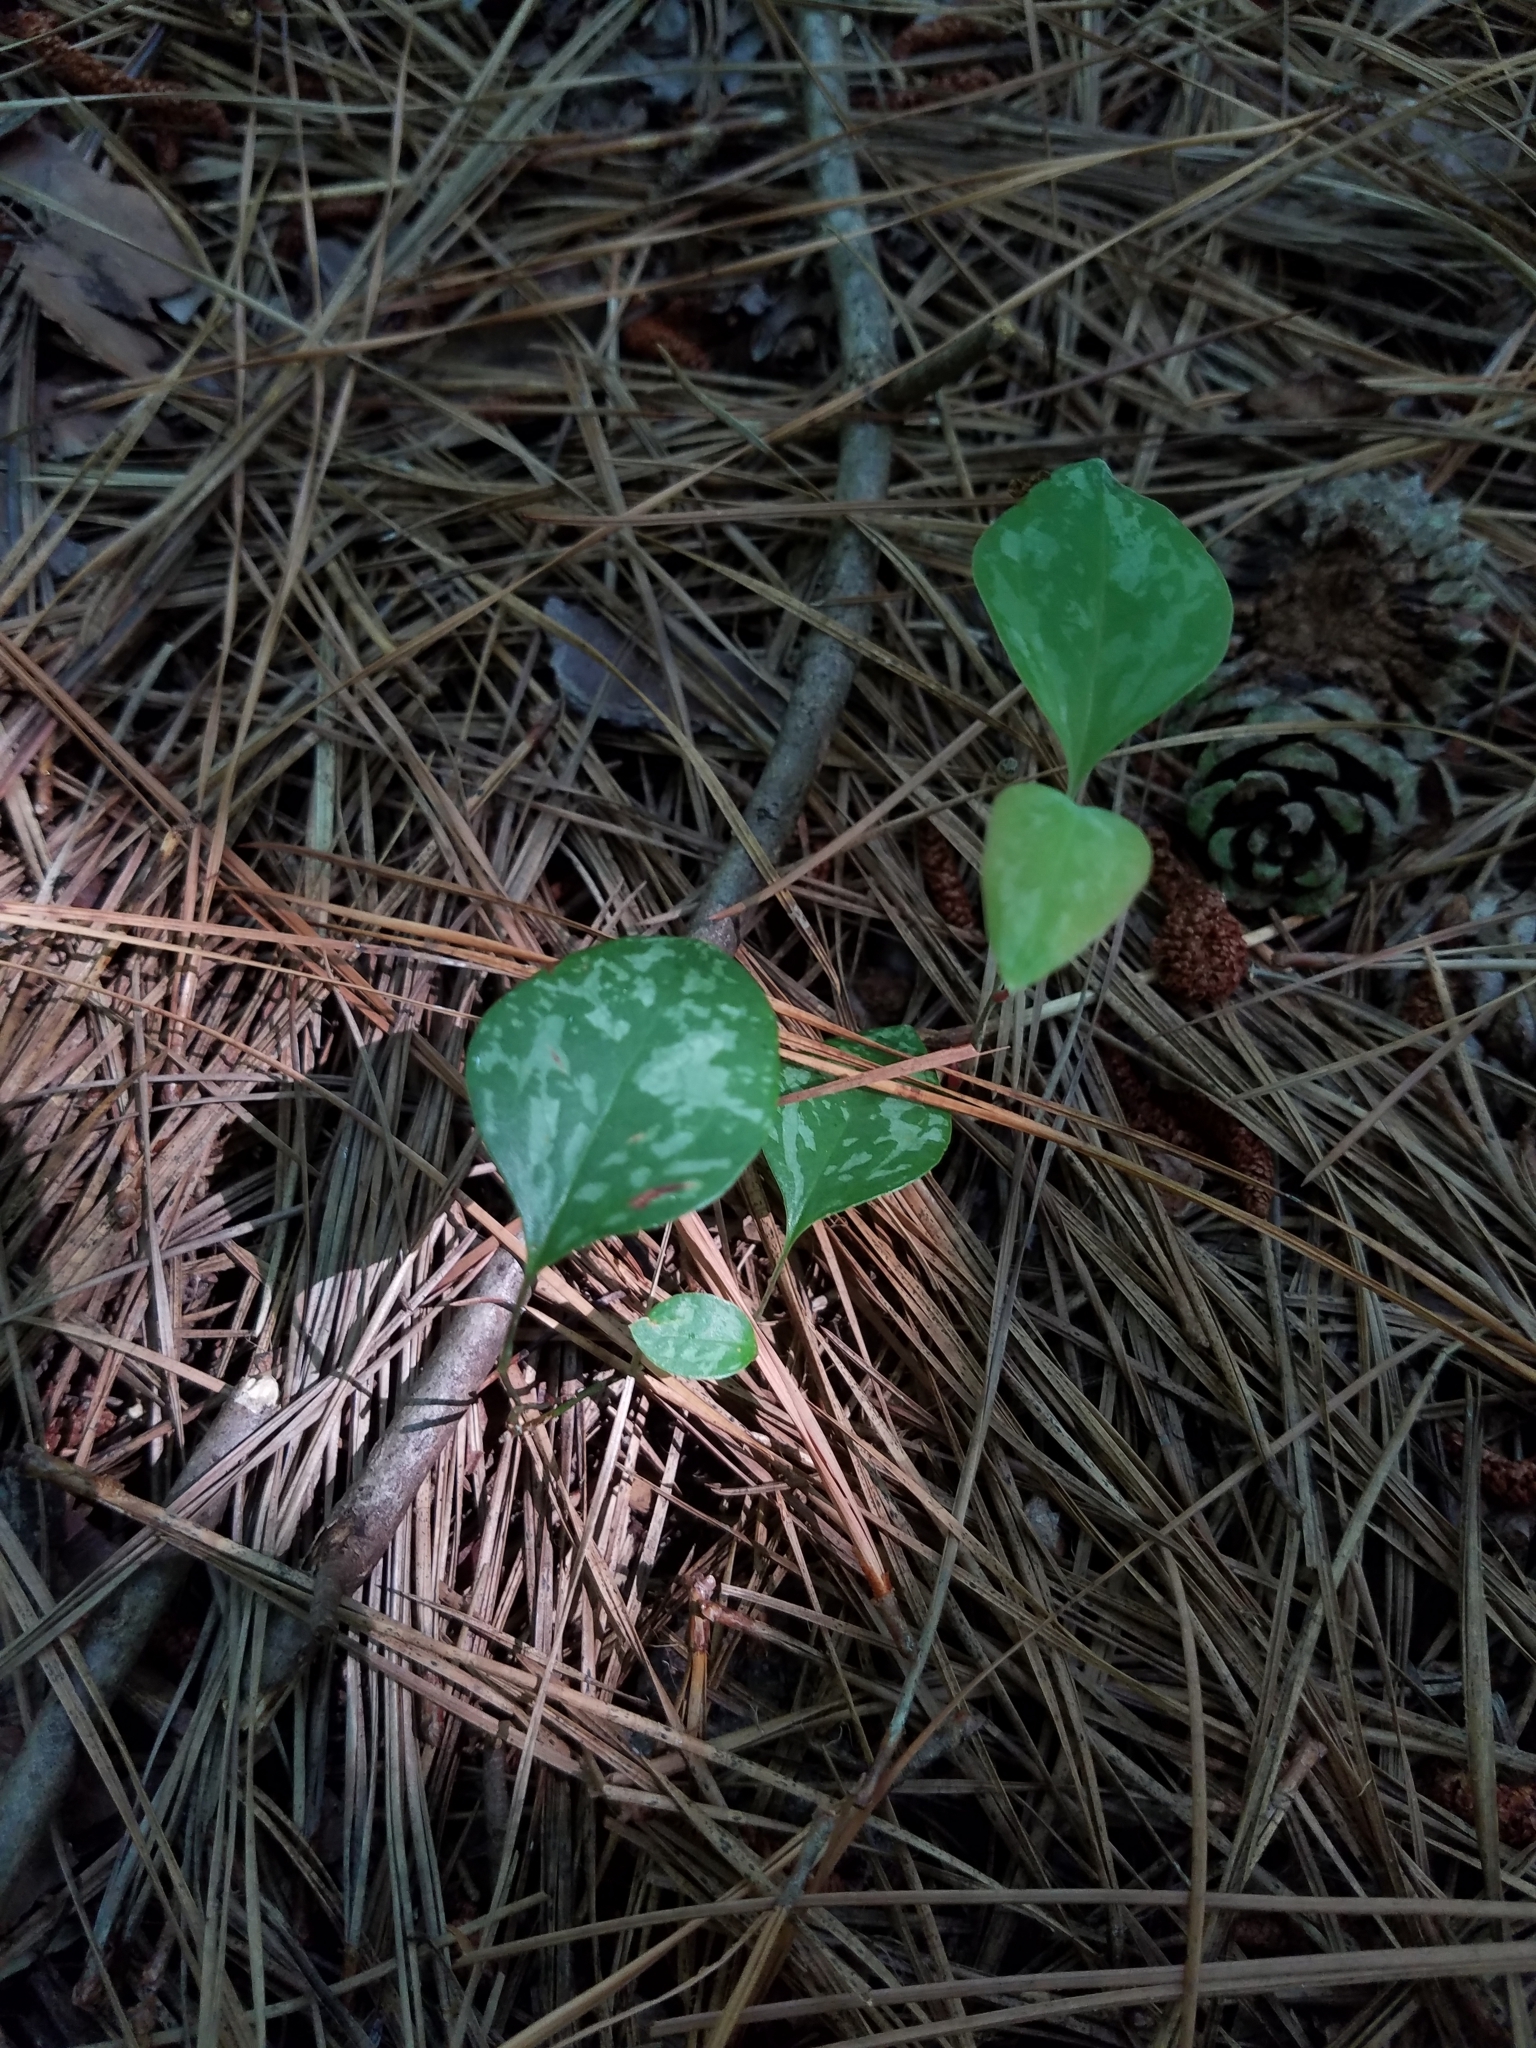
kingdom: Plantae
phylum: Tracheophyta
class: Liliopsida
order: Liliales
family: Smilacaceae
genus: Smilax
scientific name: Smilax glauca
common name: Cat greenbrier
